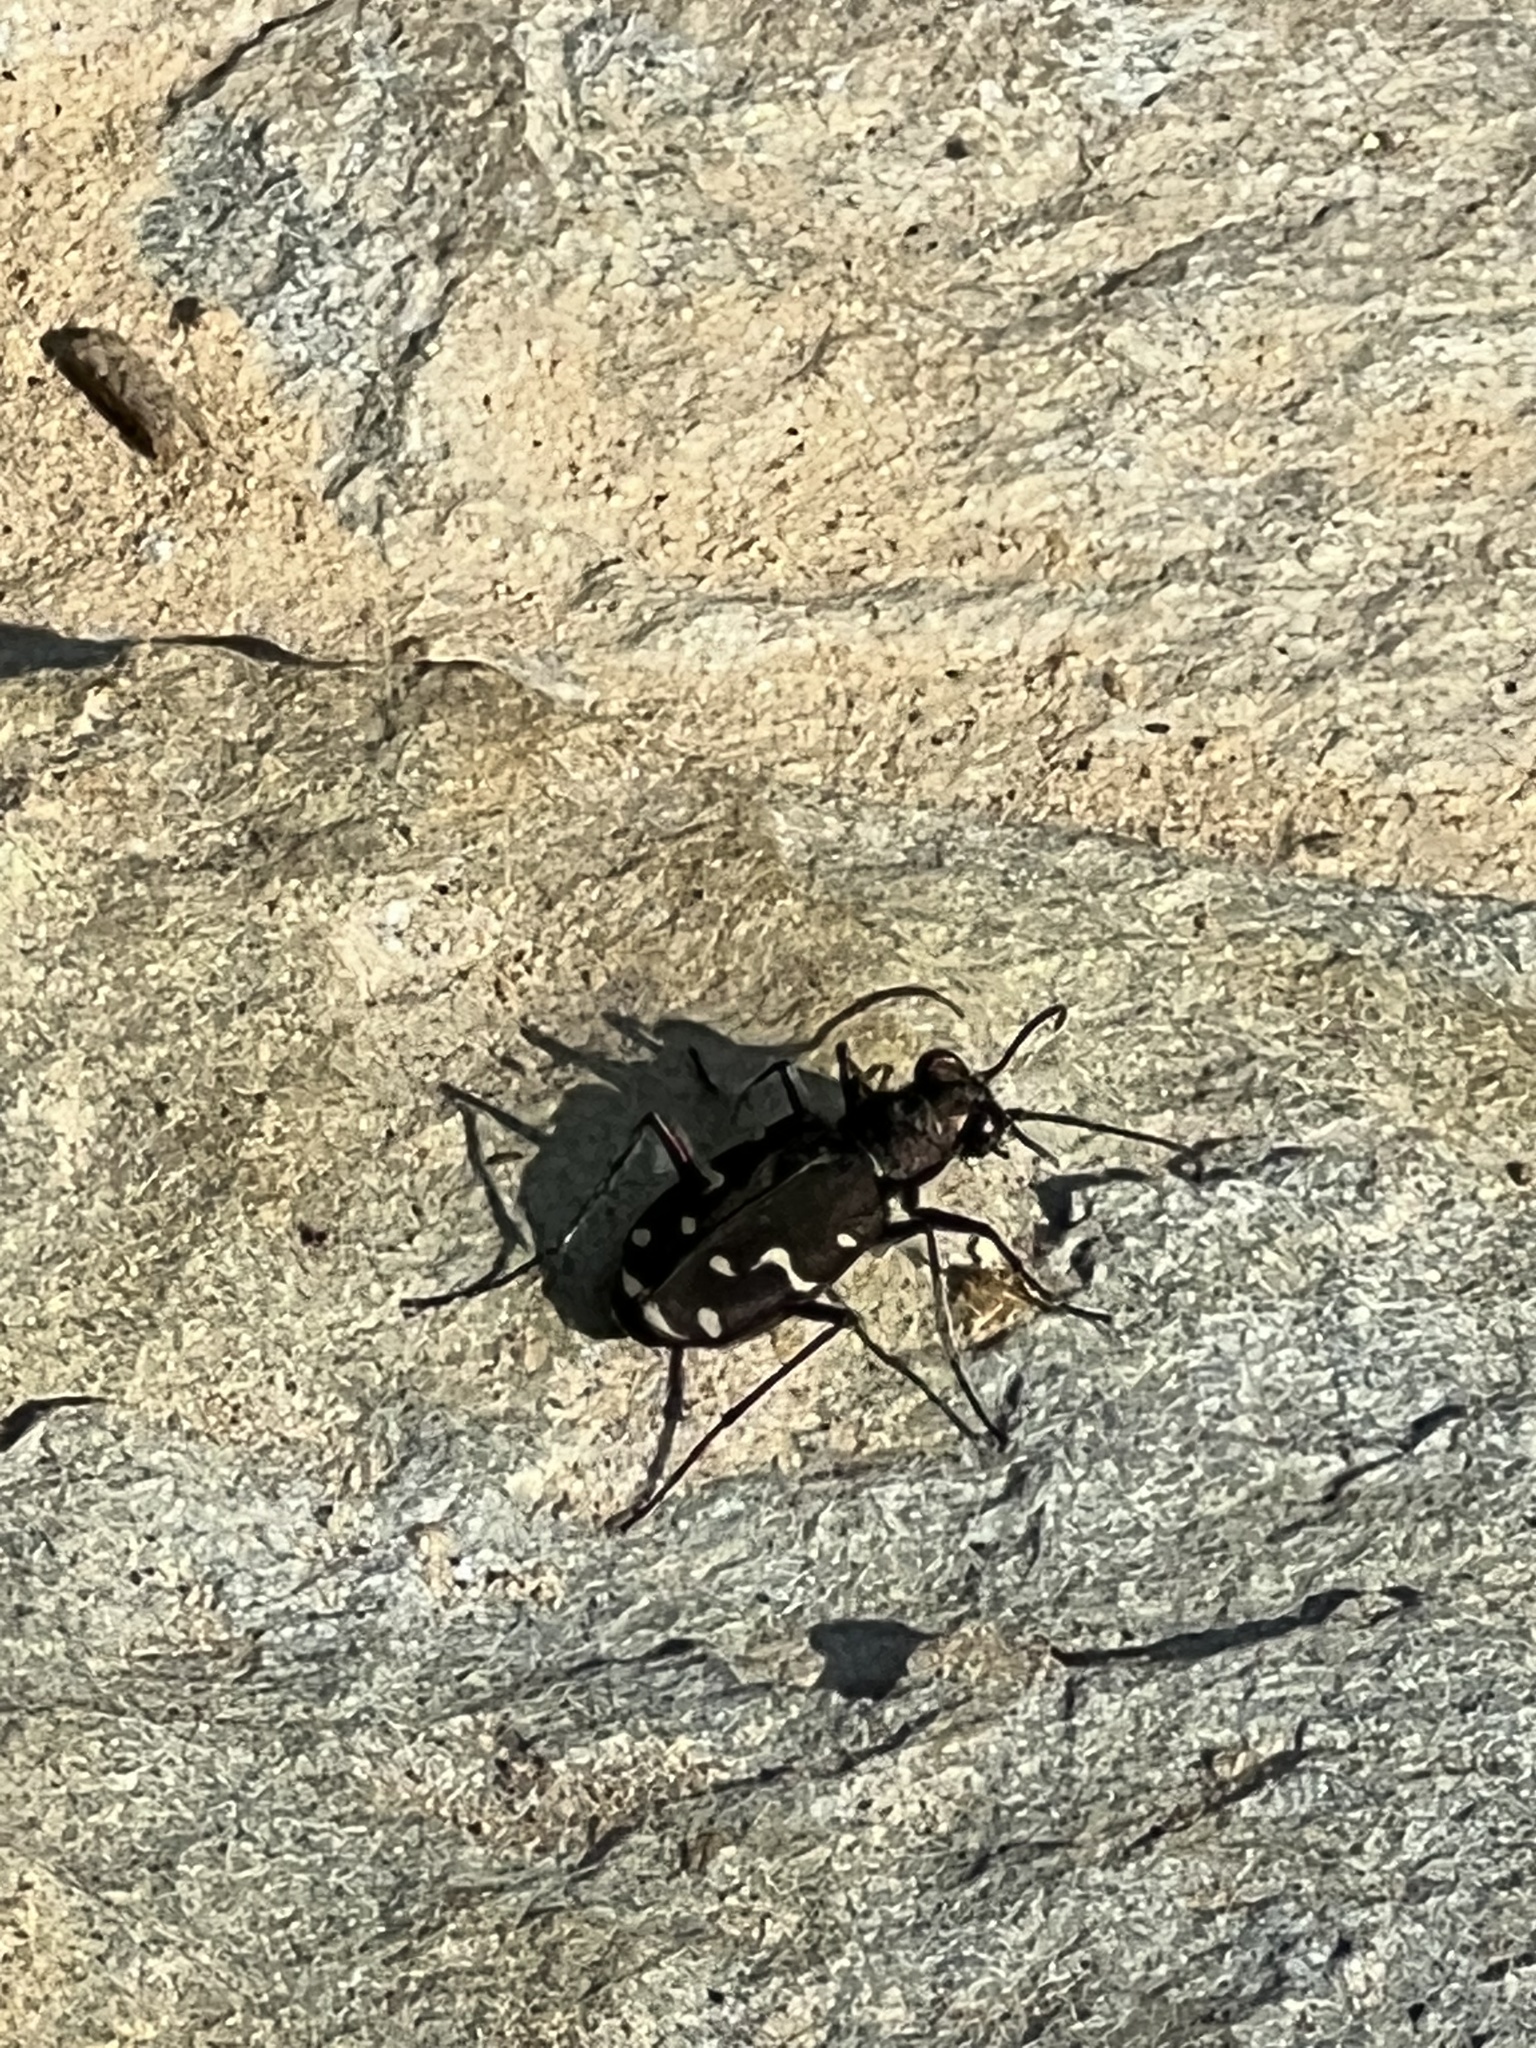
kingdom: Animalia
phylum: Arthropoda
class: Insecta
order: Coleoptera
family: Carabidae
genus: Cicindela
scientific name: Cicindela duodecimguttata
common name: Twelve-spotted tiger beetle
